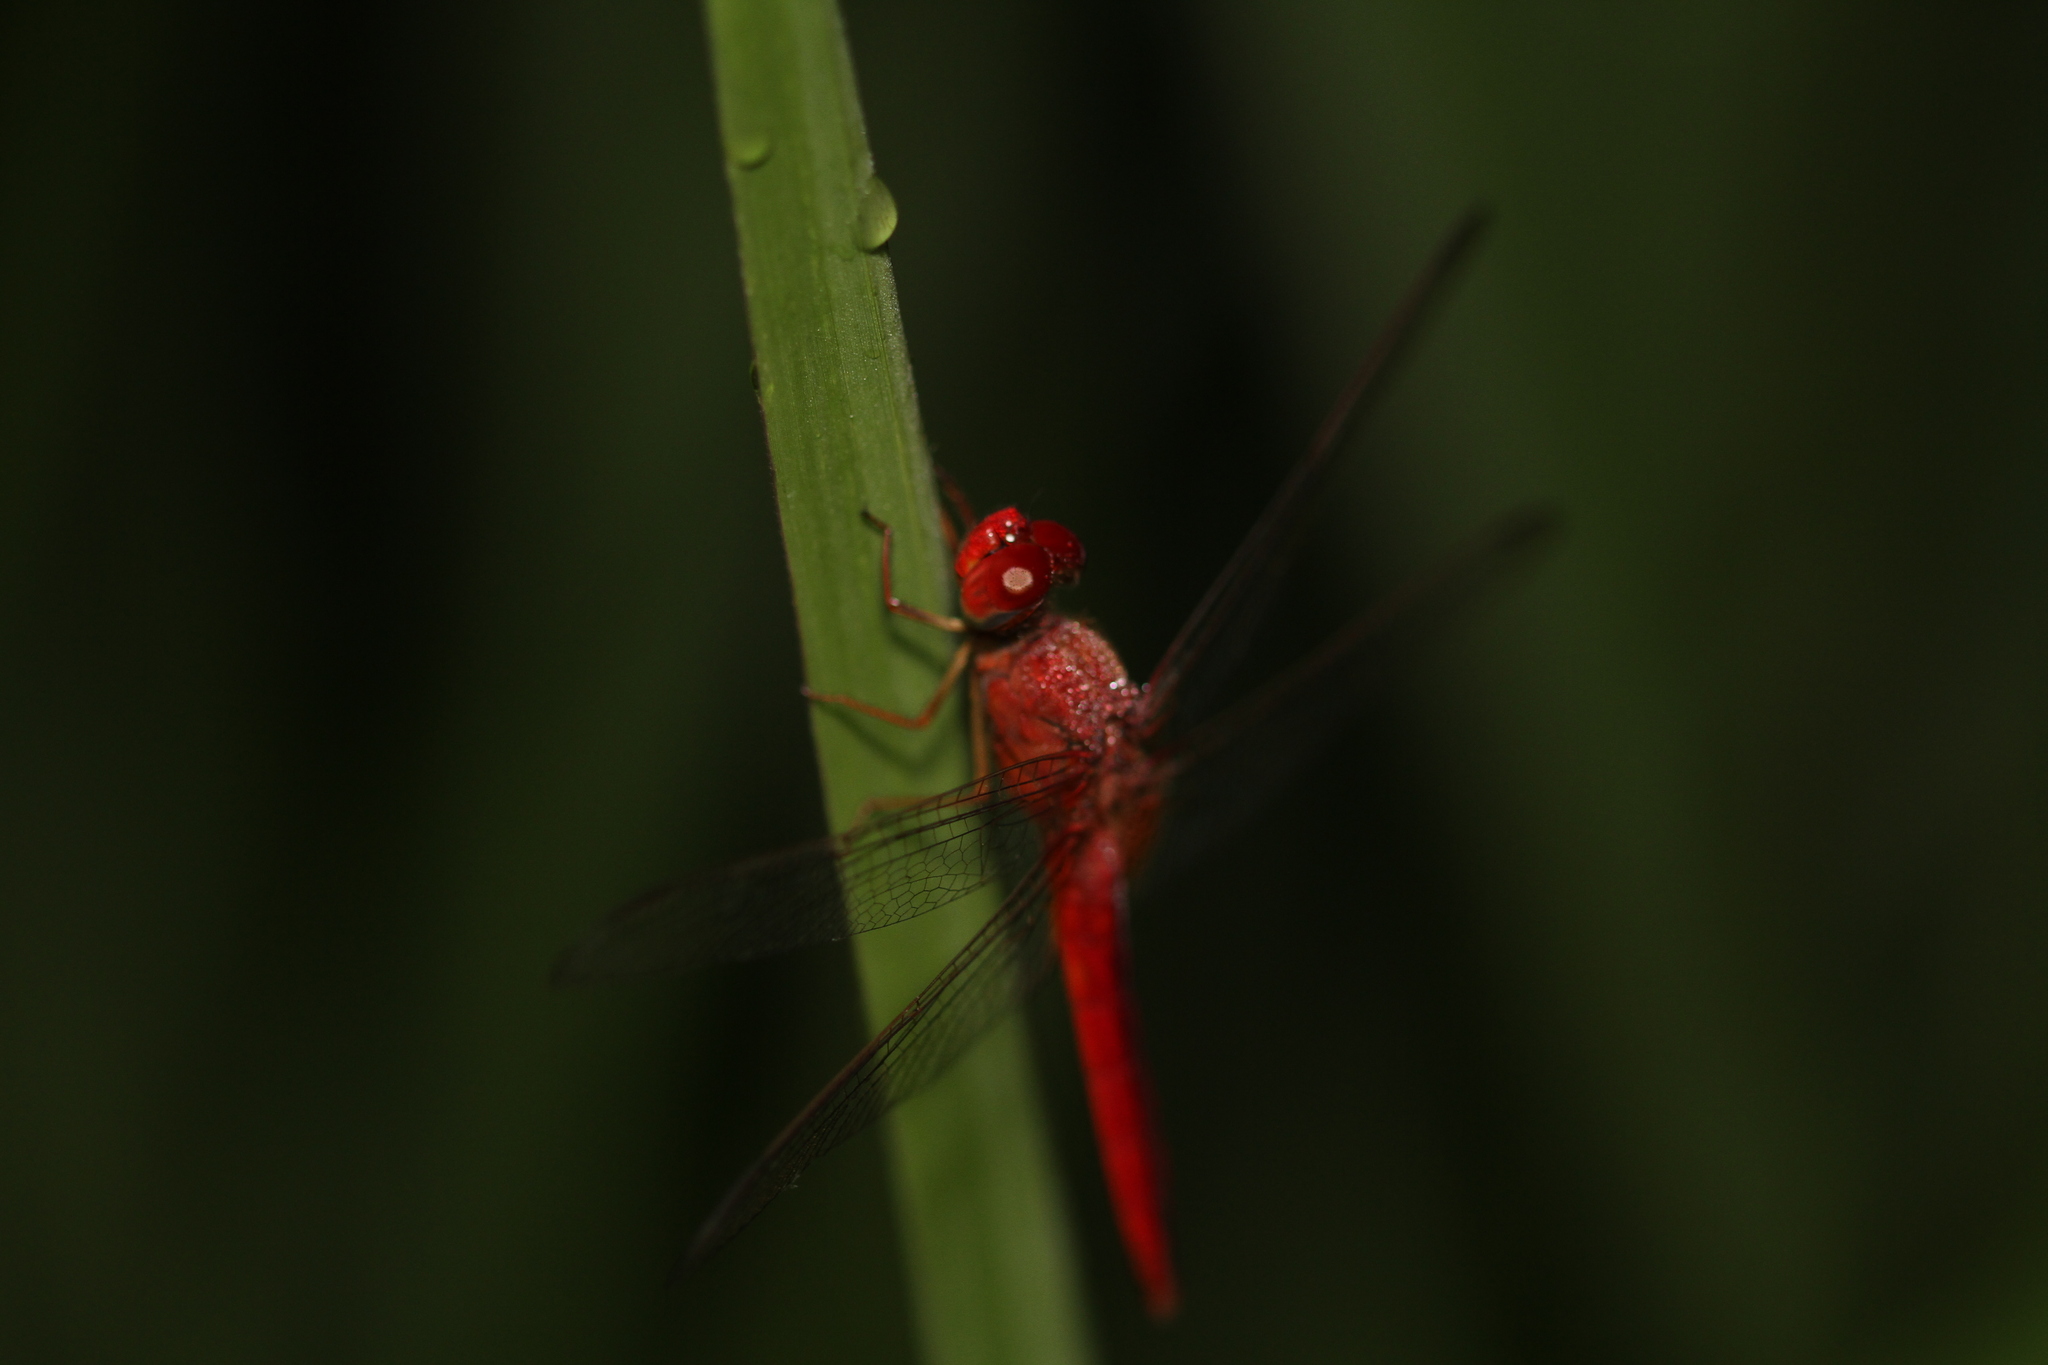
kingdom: Animalia
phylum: Arthropoda
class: Insecta
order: Odonata
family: Libellulidae
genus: Crocothemis
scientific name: Crocothemis servilia
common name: Scarlet skimmer
